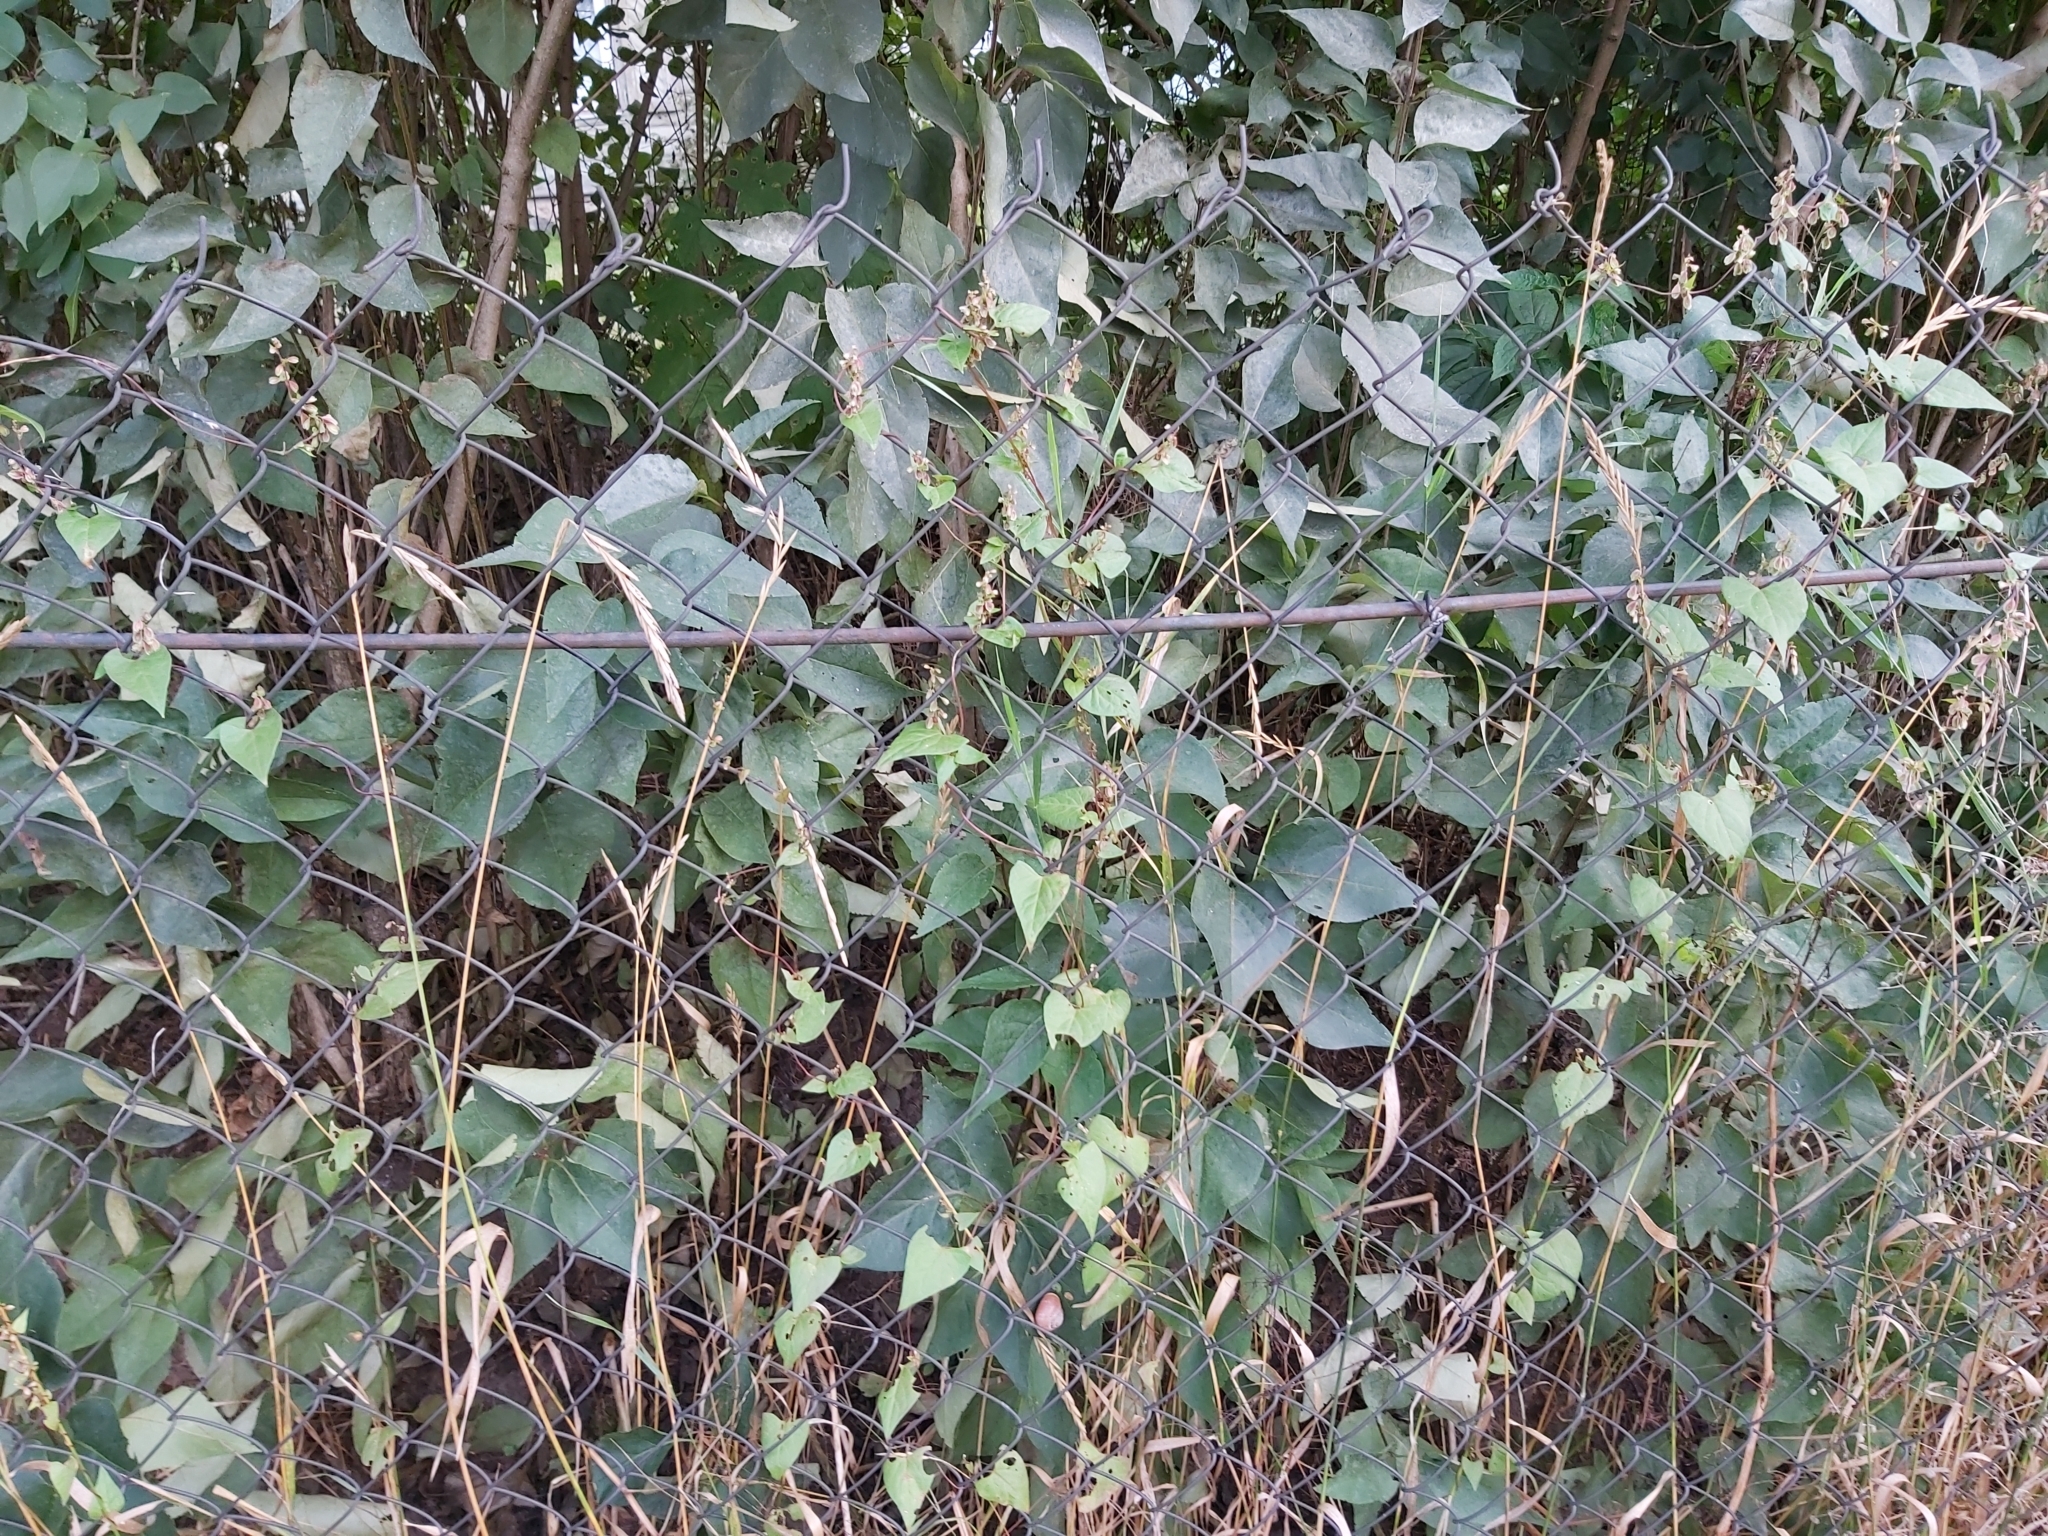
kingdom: Plantae
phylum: Tracheophyta
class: Magnoliopsida
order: Caryophyllales
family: Polygonaceae
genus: Fallopia
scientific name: Fallopia dumetorum
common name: Copse-bindweed
